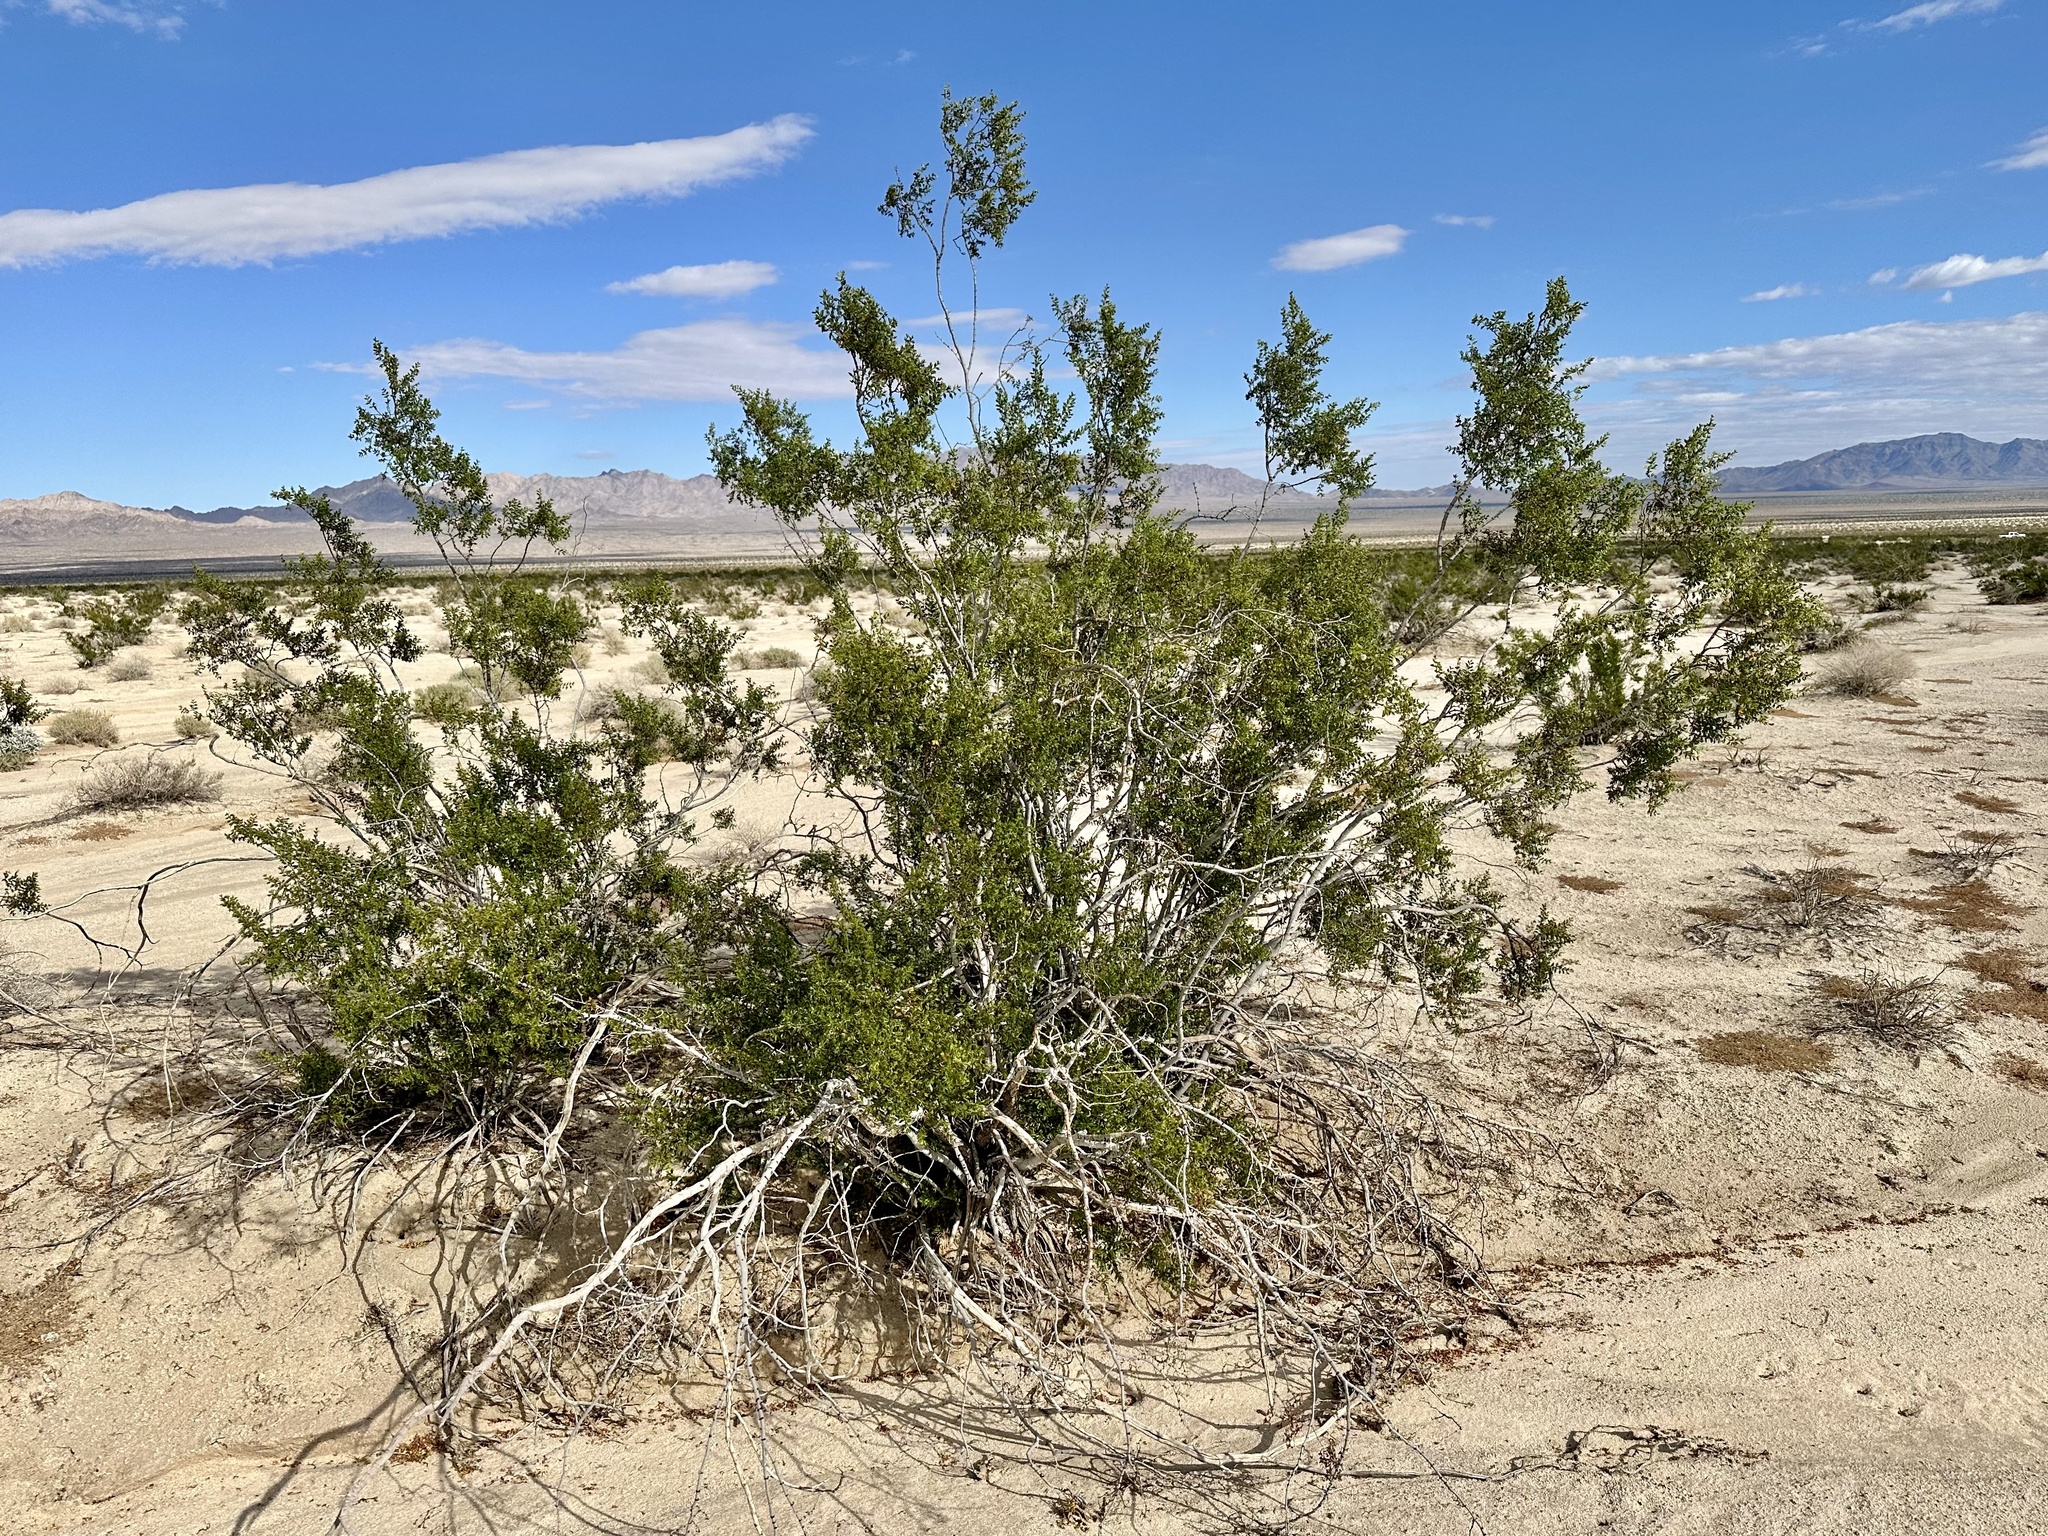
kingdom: Plantae
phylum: Tracheophyta
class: Magnoliopsida
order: Zygophyllales
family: Zygophyllaceae
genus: Larrea
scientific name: Larrea tridentata
